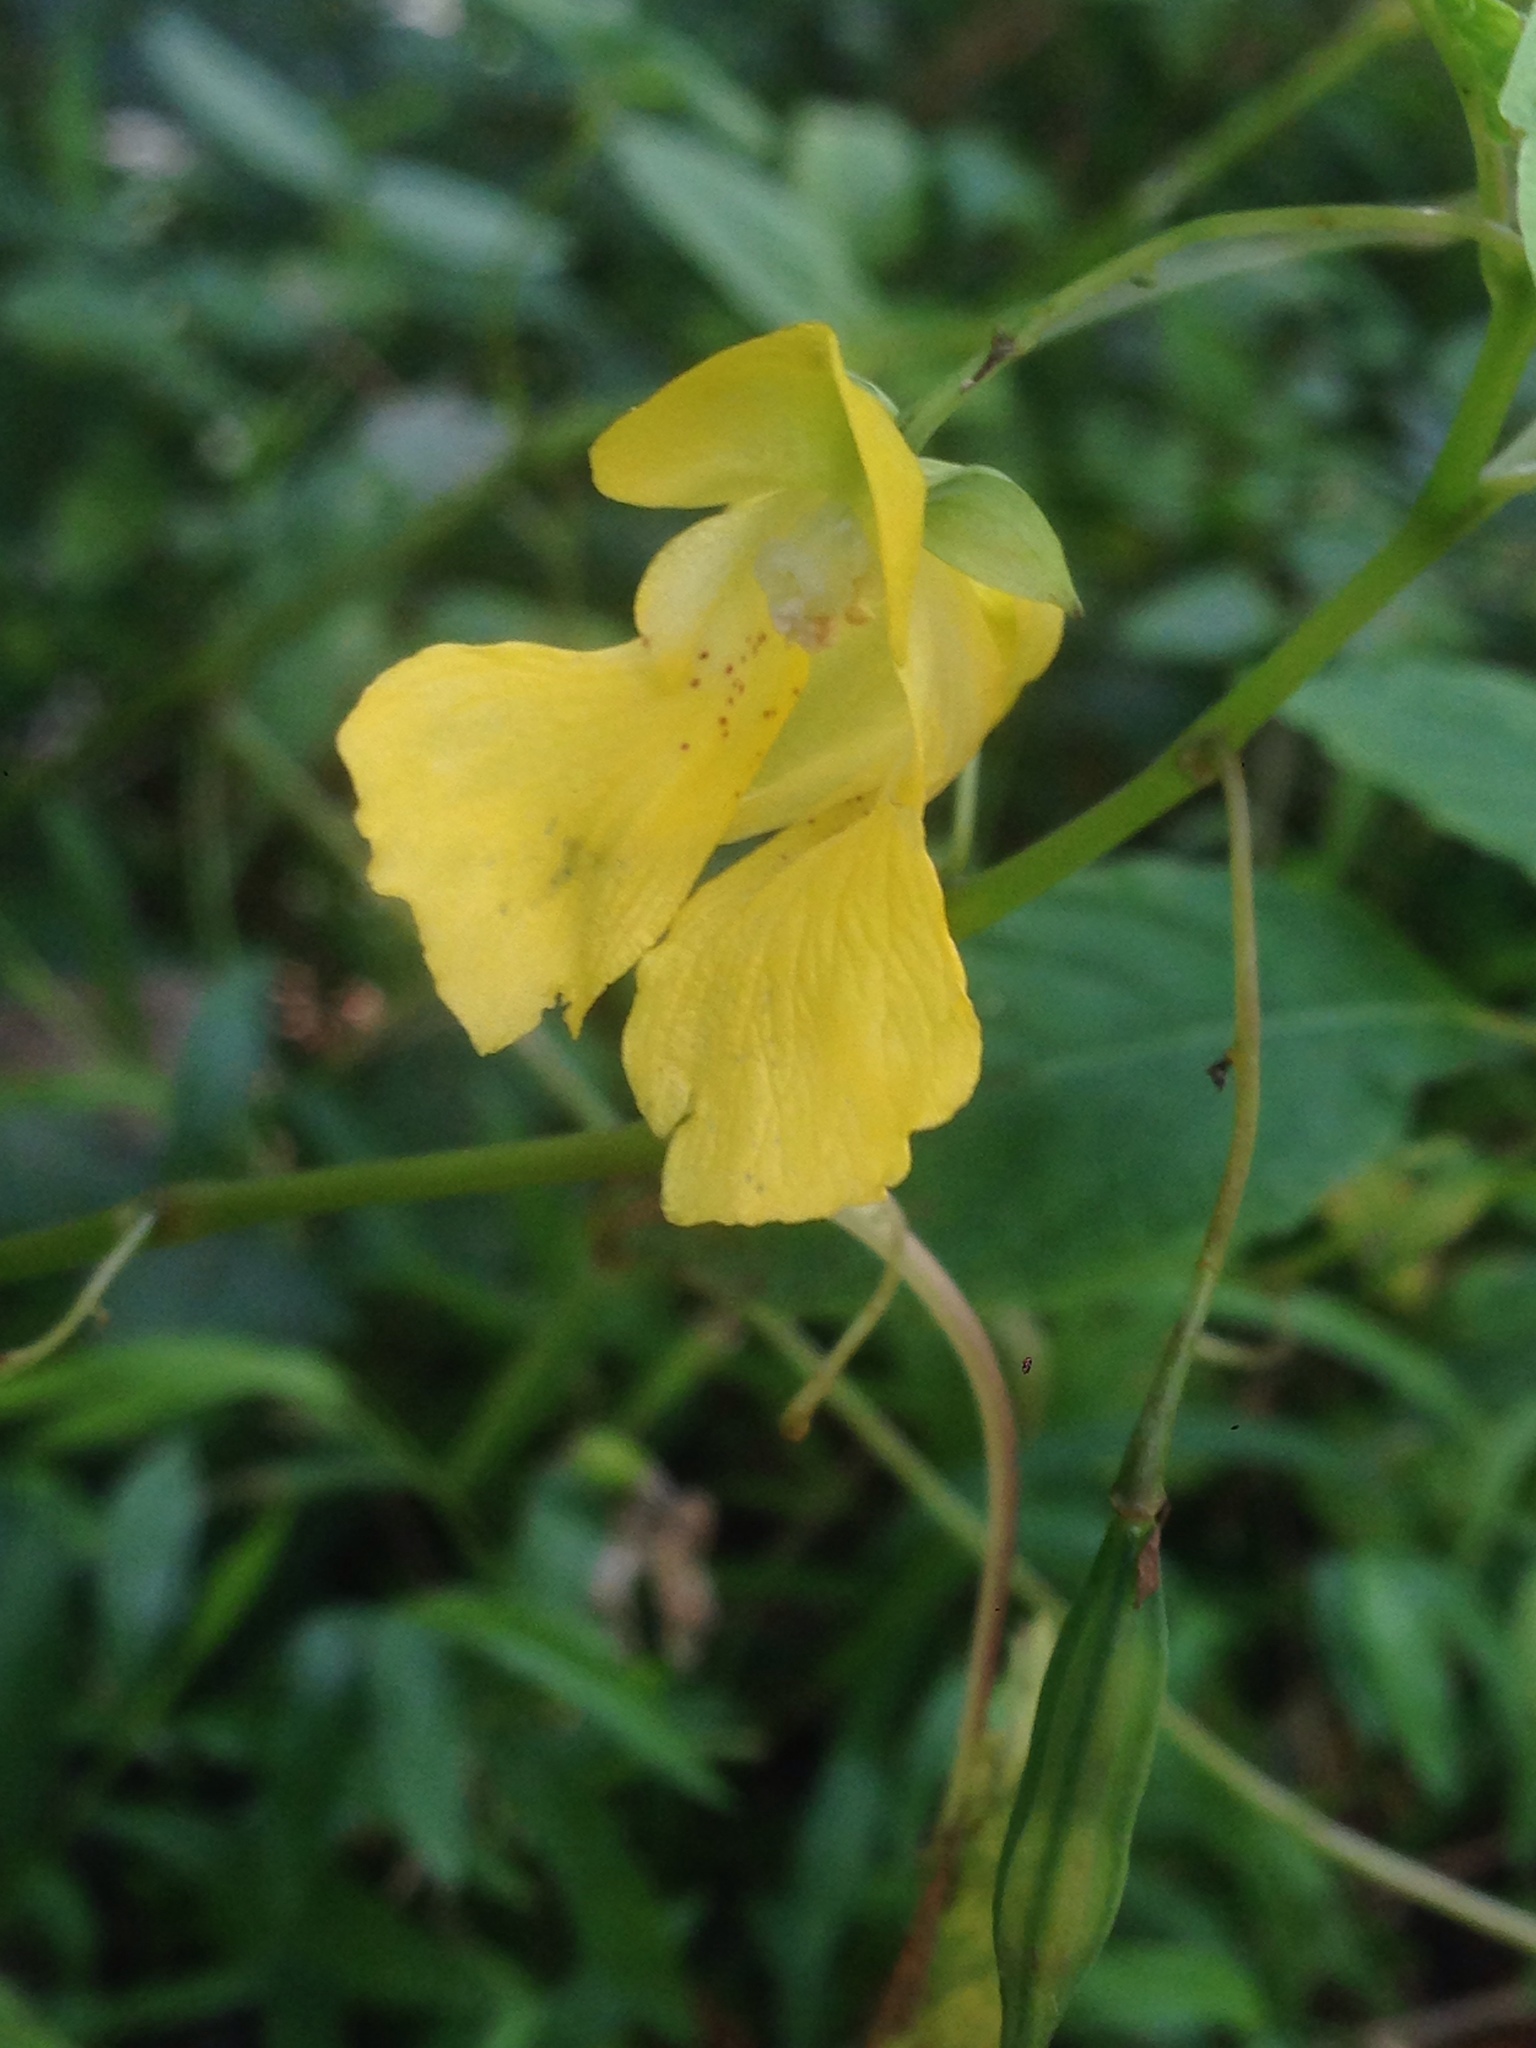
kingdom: Plantae
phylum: Tracheophyta
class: Magnoliopsida
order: Ericales
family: Balsaminaceae
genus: Impatiens
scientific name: Impatiens pallida
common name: Pale snapweed
